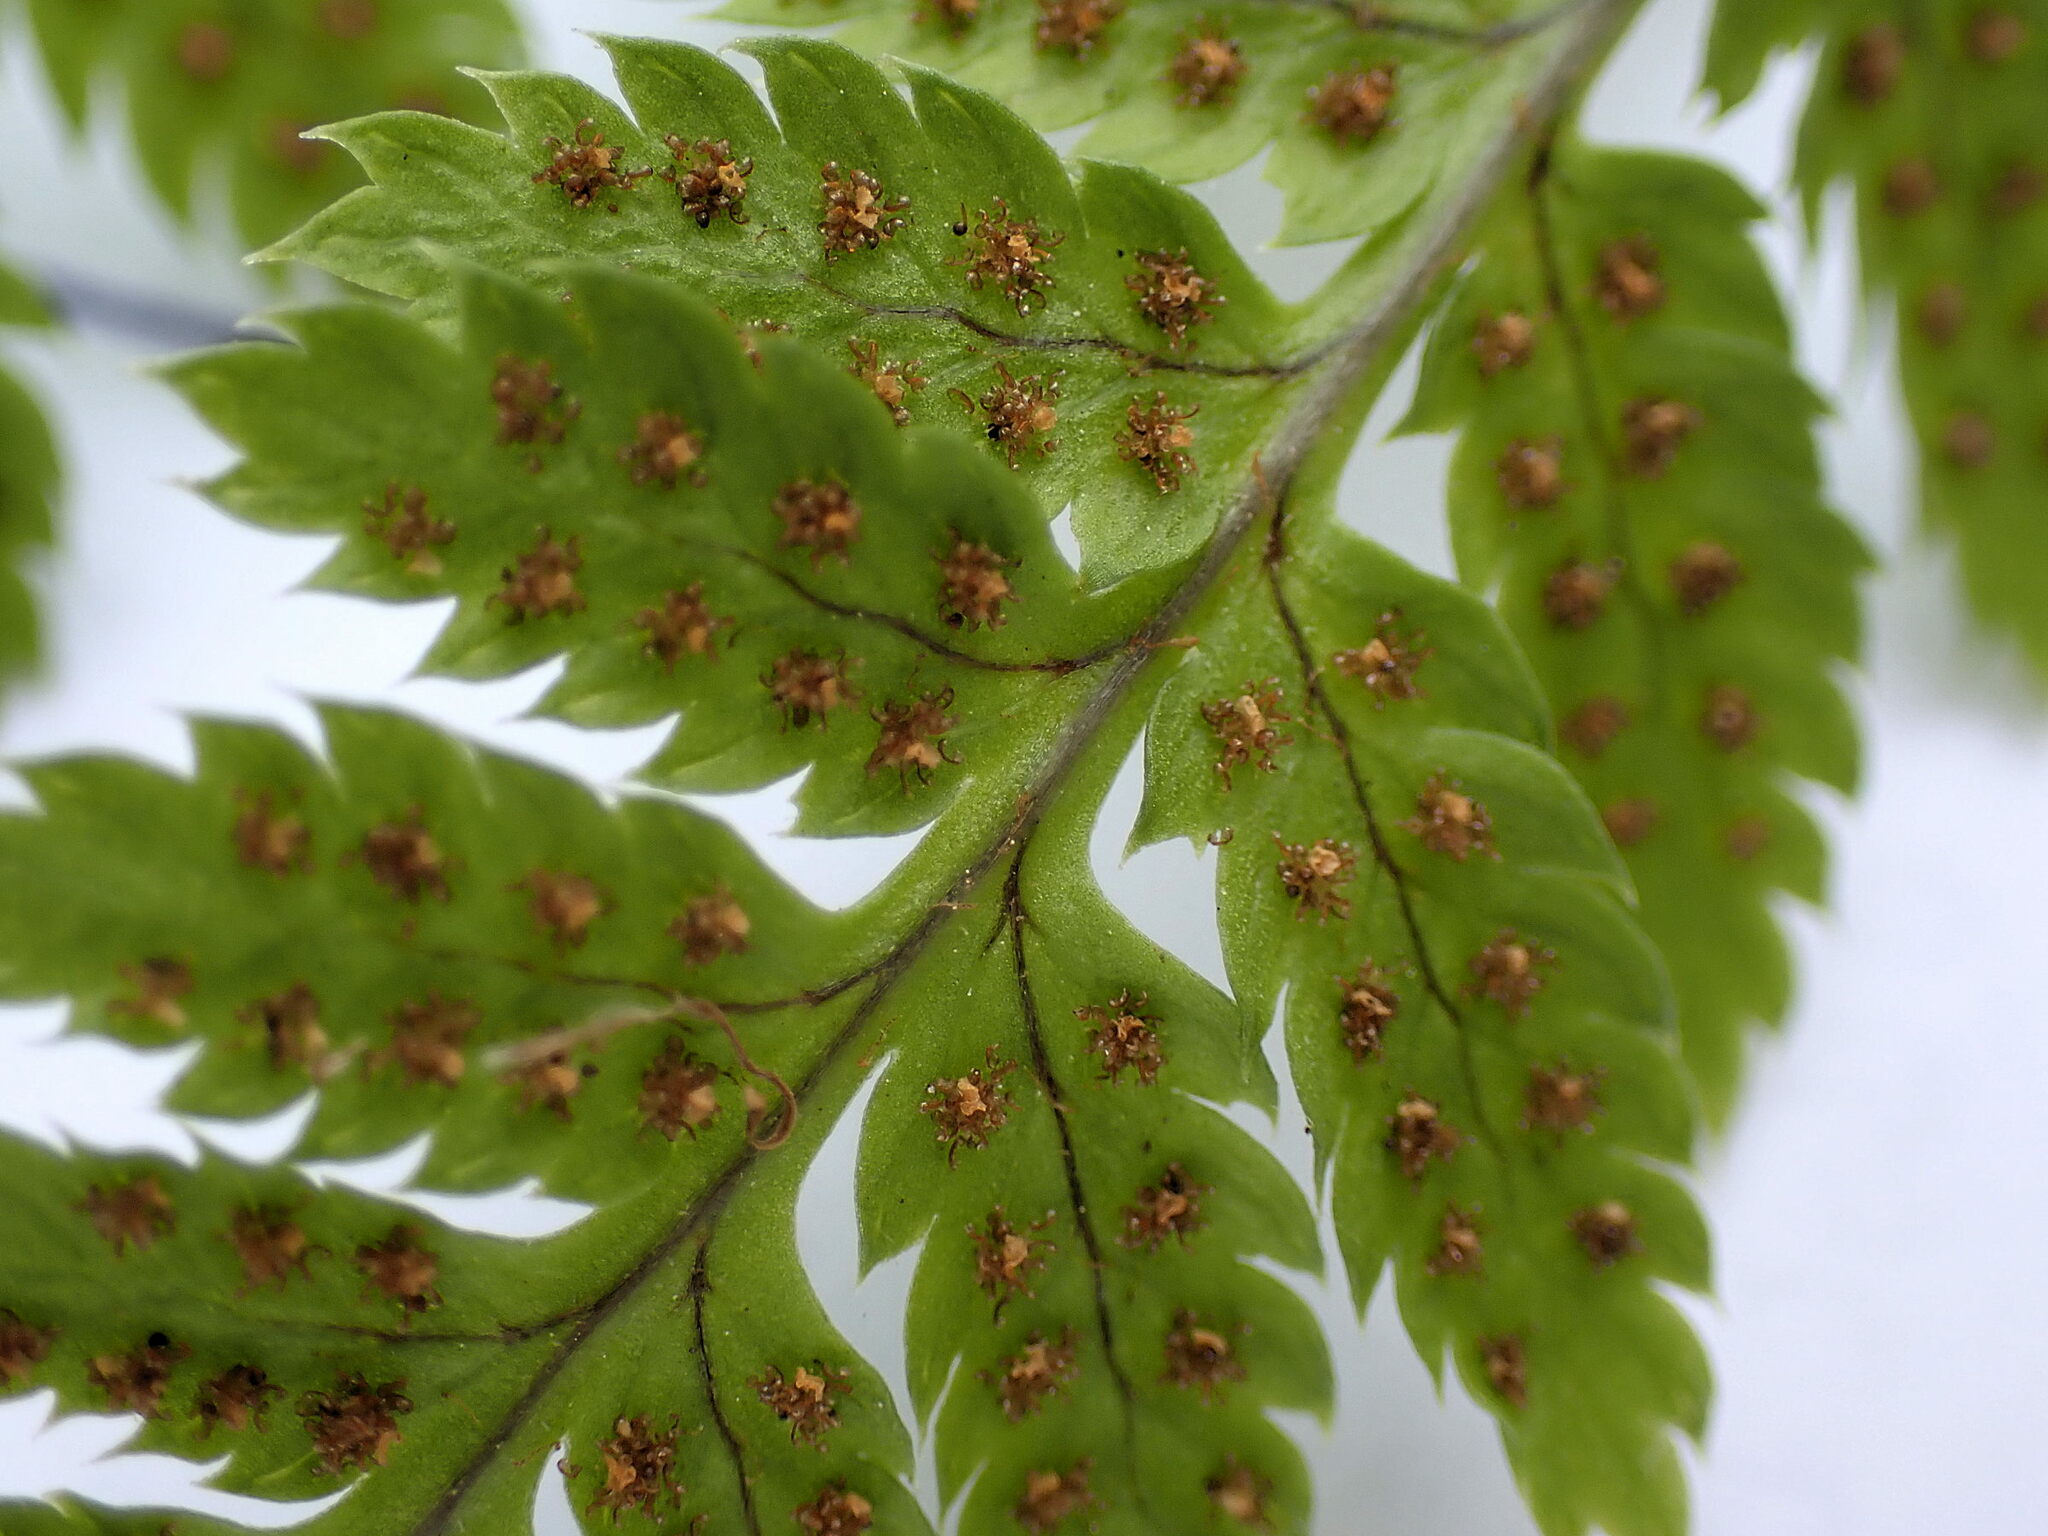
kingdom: Plantae
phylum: Tracheophyta
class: Polypodiopsida
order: Polypodiales
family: Dryopteridaceae
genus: Dryopteris
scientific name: Dryopteris carthusiana
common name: Narrow buckler-fern
